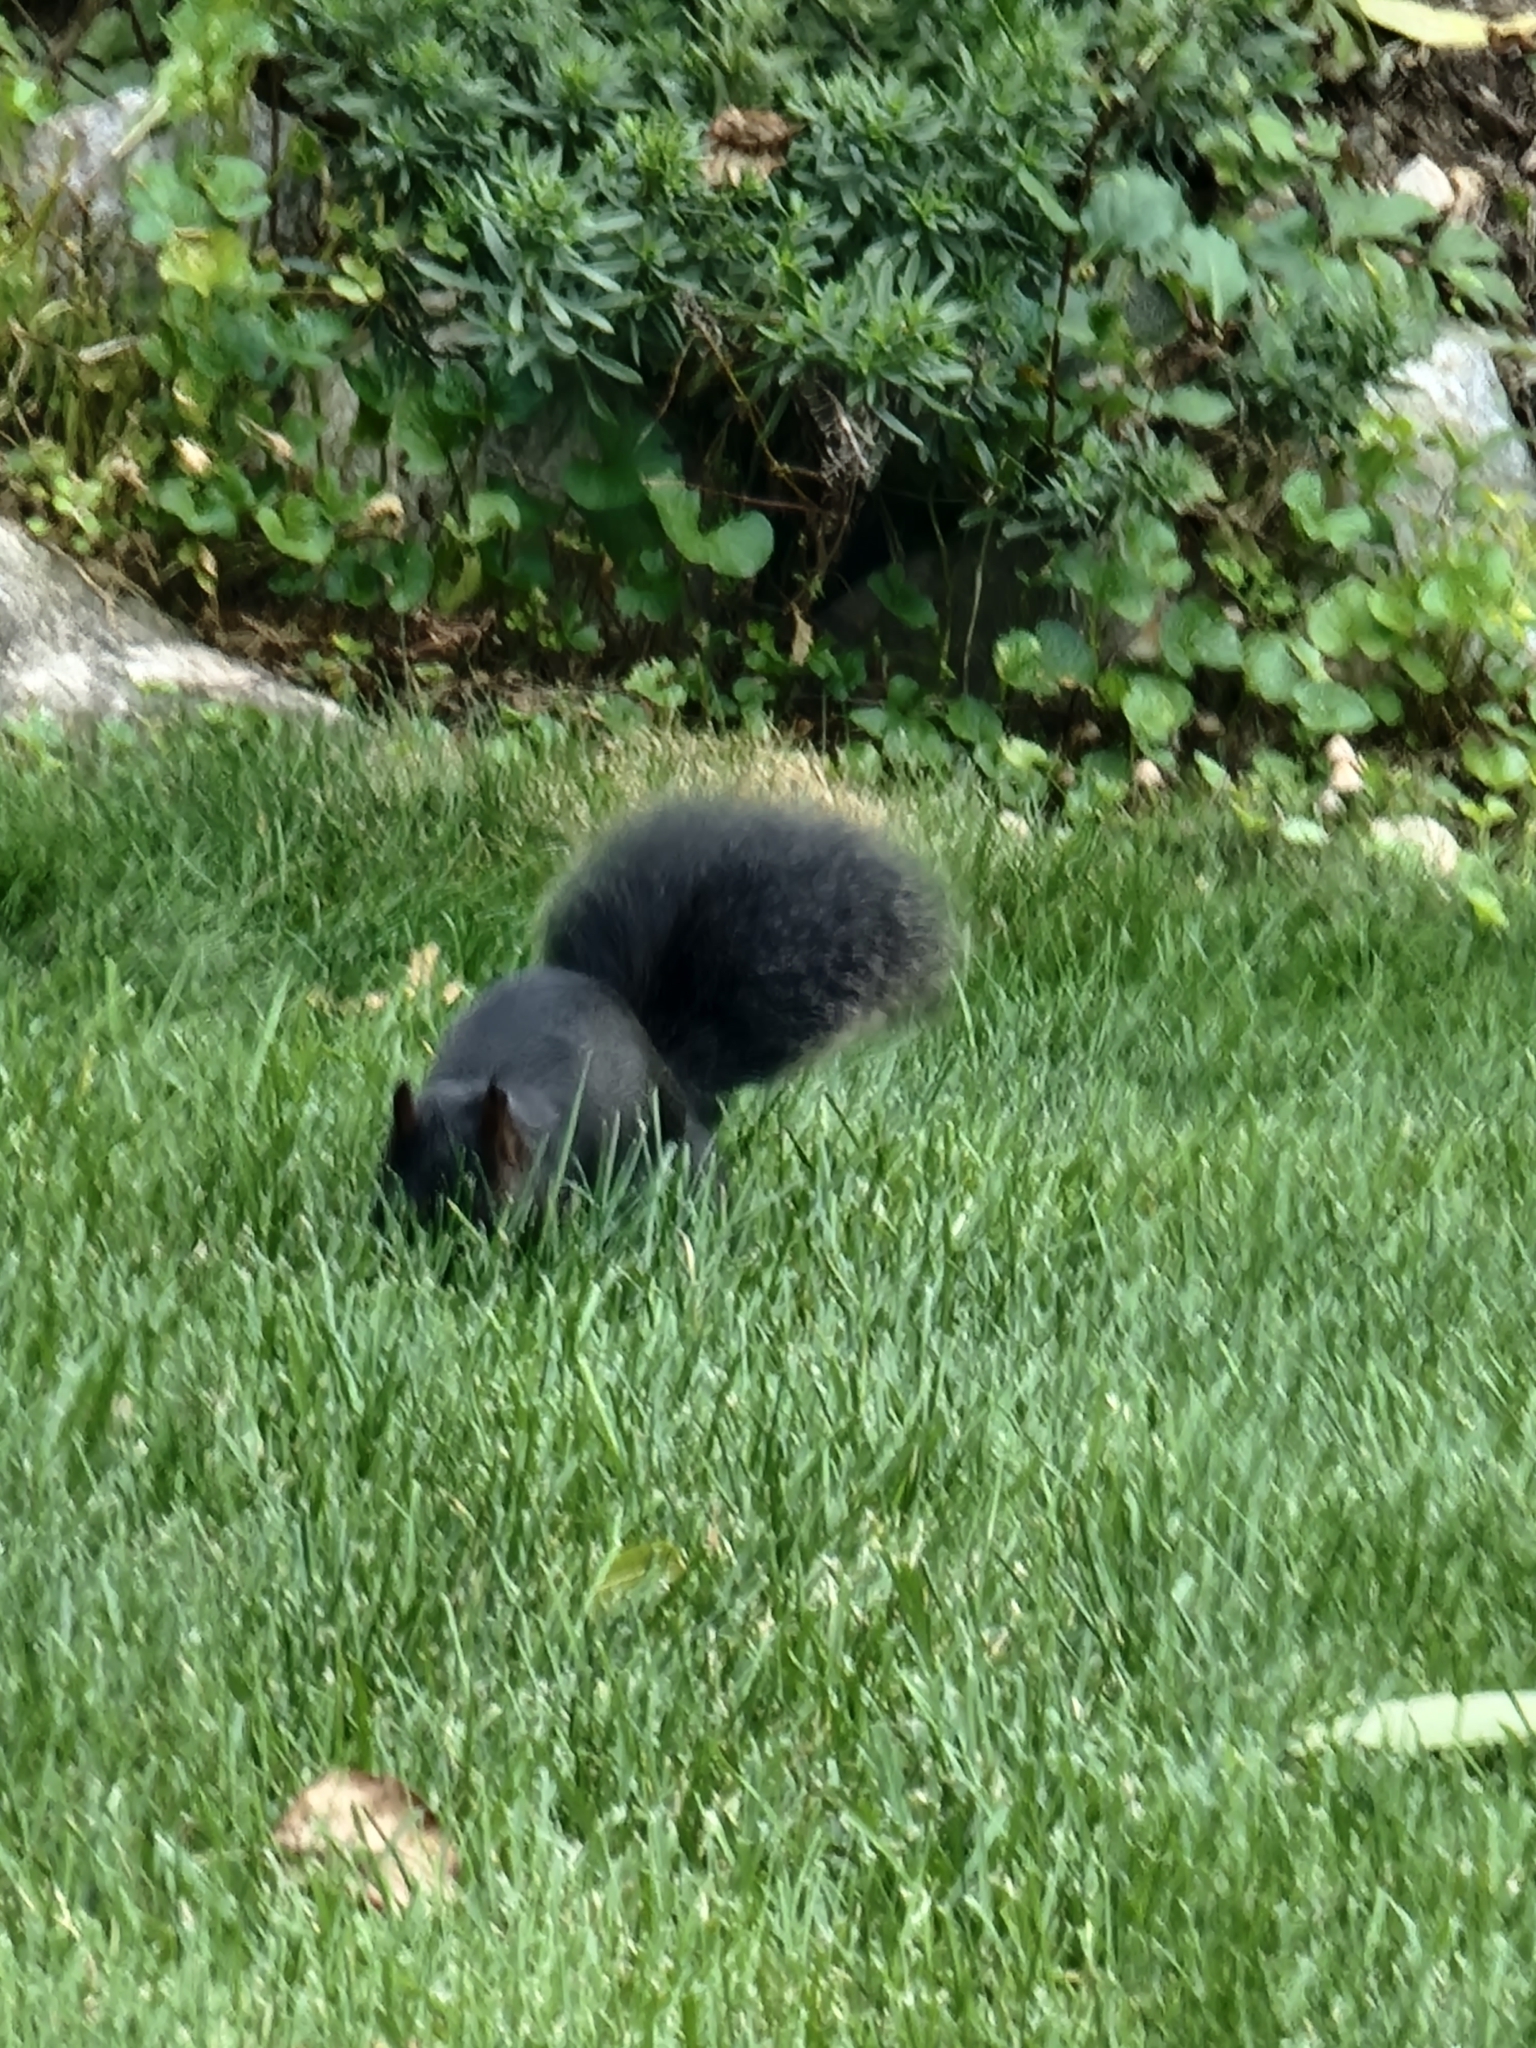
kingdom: Animalia
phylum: Chordata
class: Mammalia
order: Rodentia
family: Sciuridae
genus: Sciurus
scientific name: Sciurus carolinensis
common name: Eastern gray squirrel
